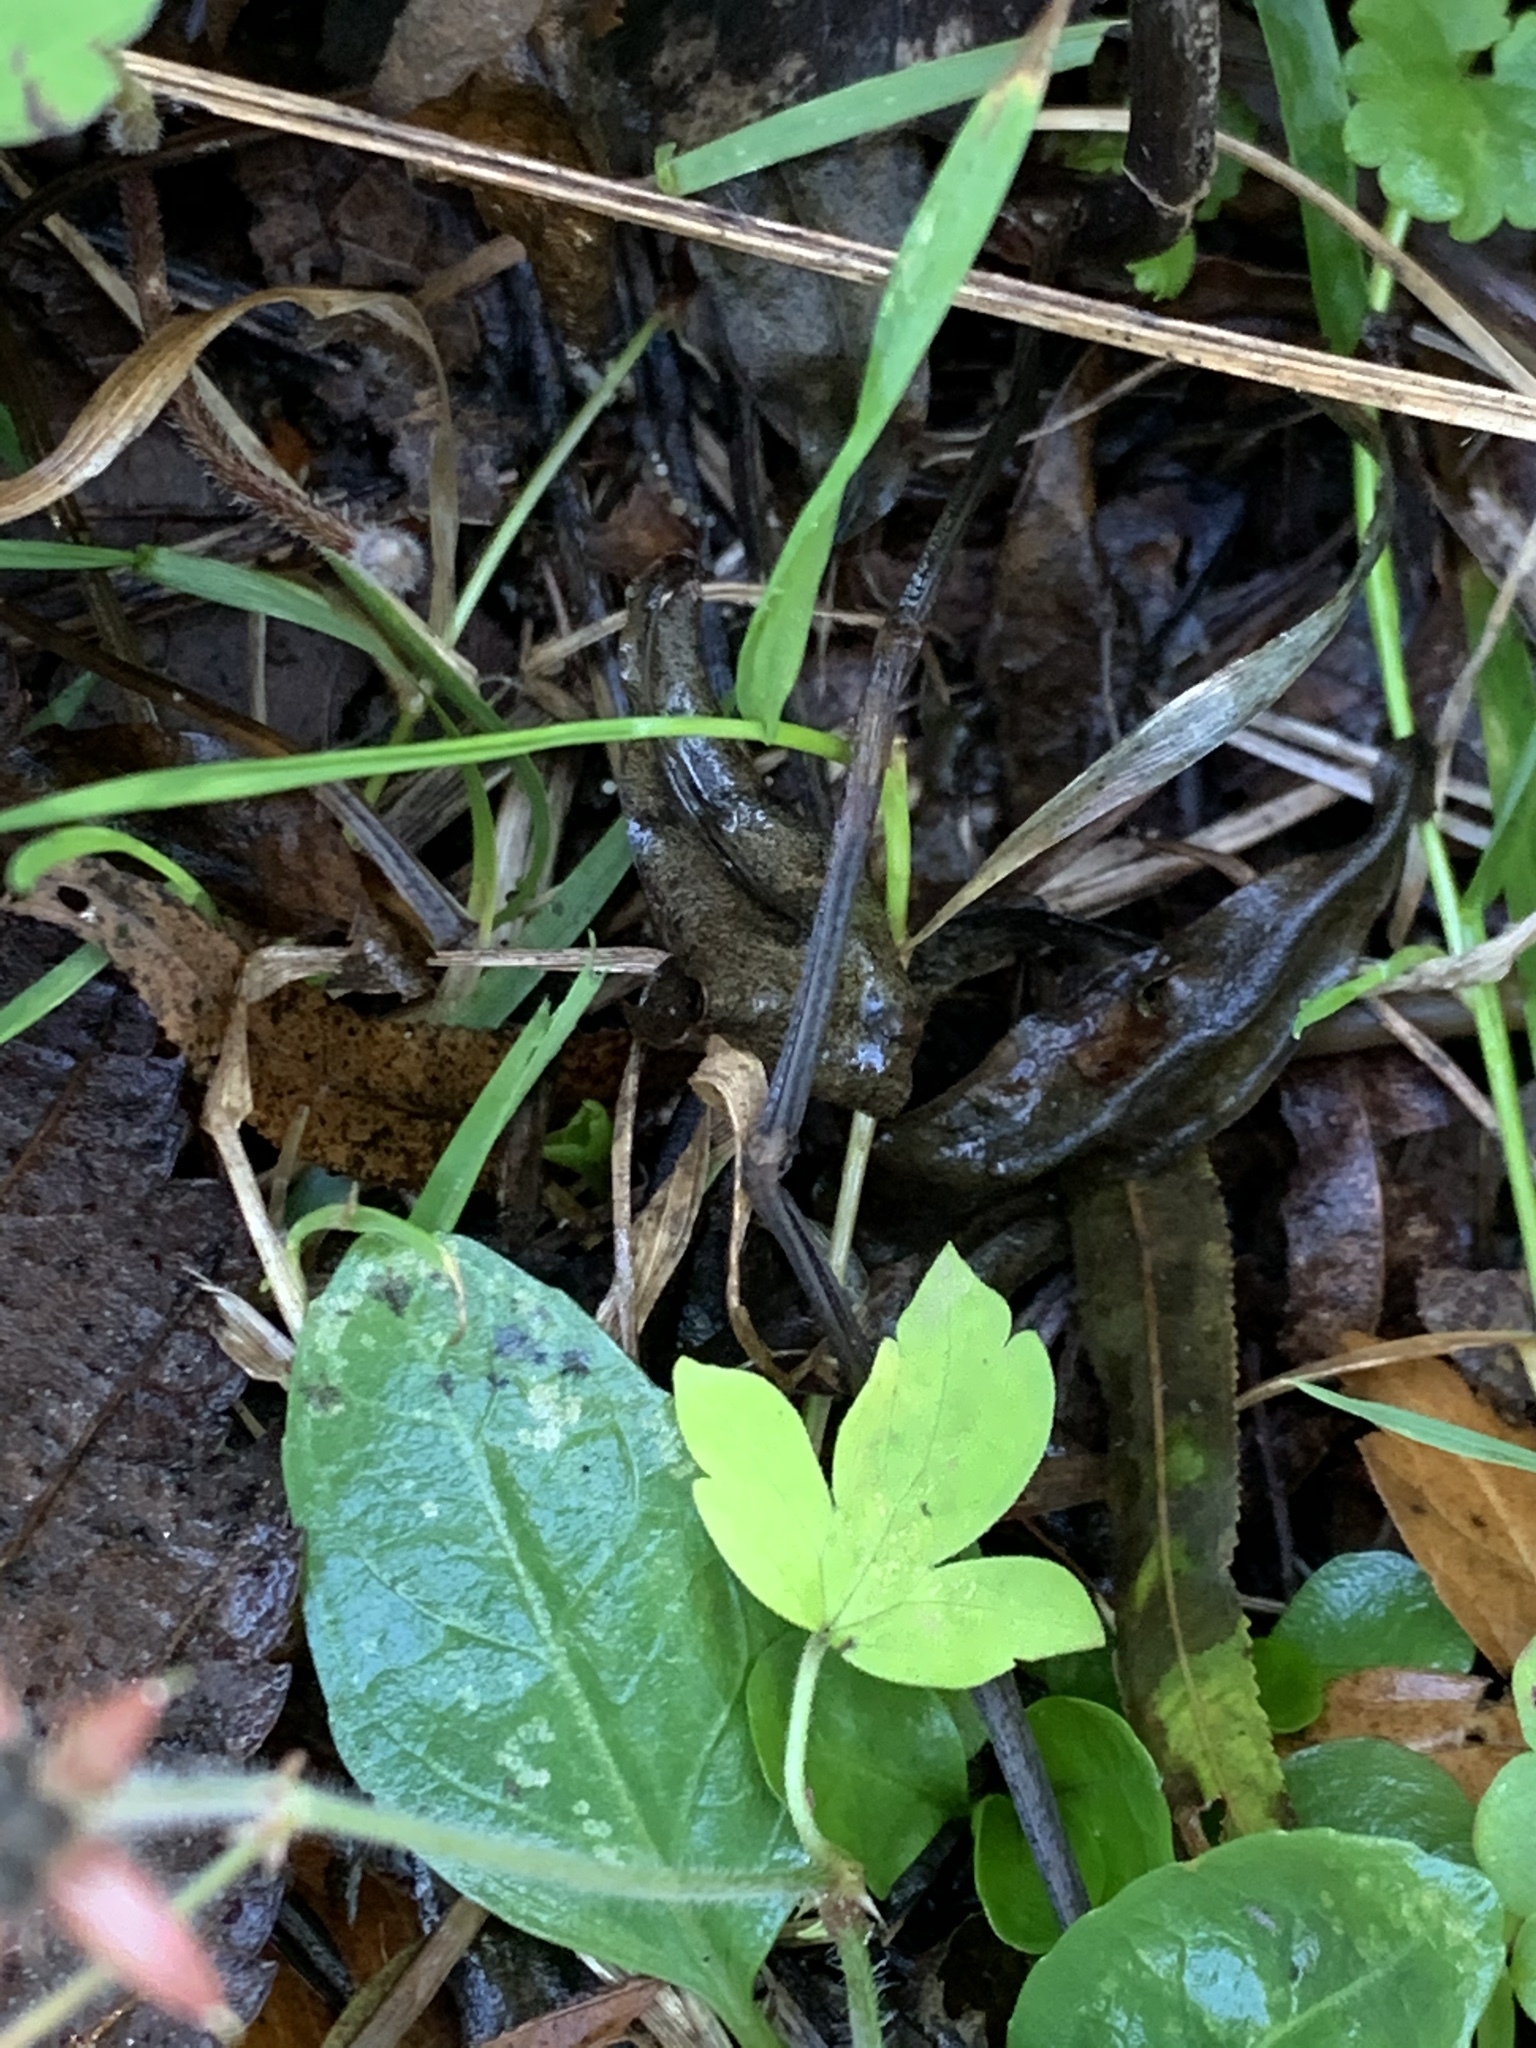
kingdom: Plantae
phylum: Tracheophyta
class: Magnoliopsida
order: Geraniales
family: Geraniaceae
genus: Geranium
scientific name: Geranium thunbergii
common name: Dewdrop crane's-bill
